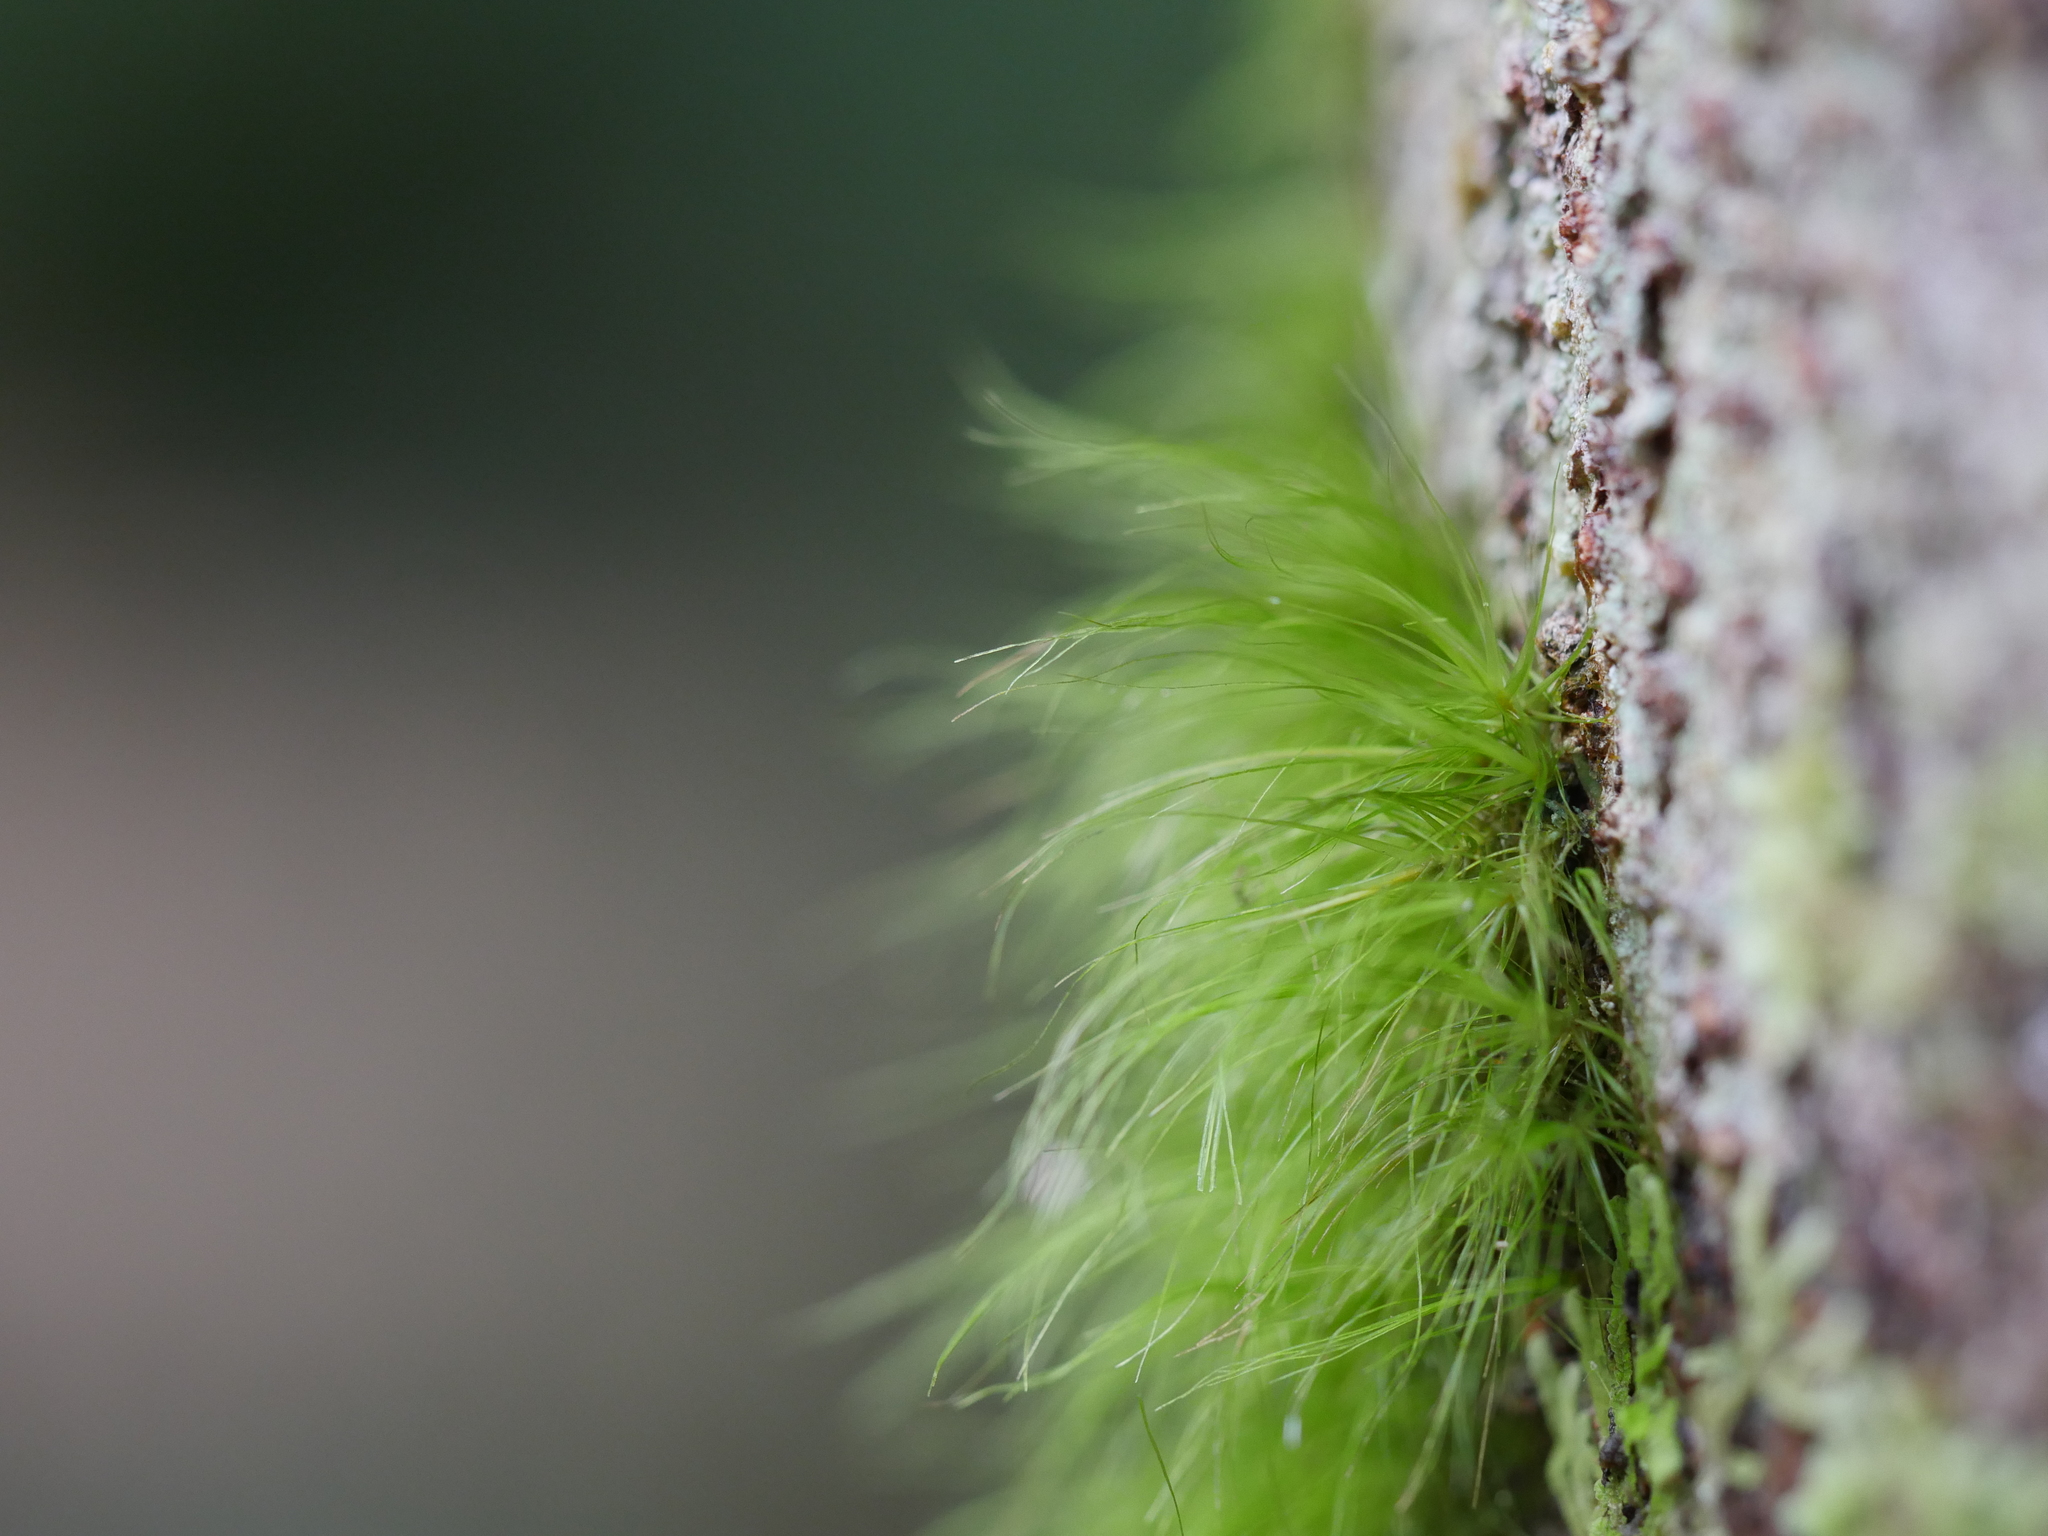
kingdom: Plantae
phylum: Bryophyta
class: Bryopsida
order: Dicranales
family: Dicranaceae
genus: Dicranoloma
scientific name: Dicranoloma menziesii
